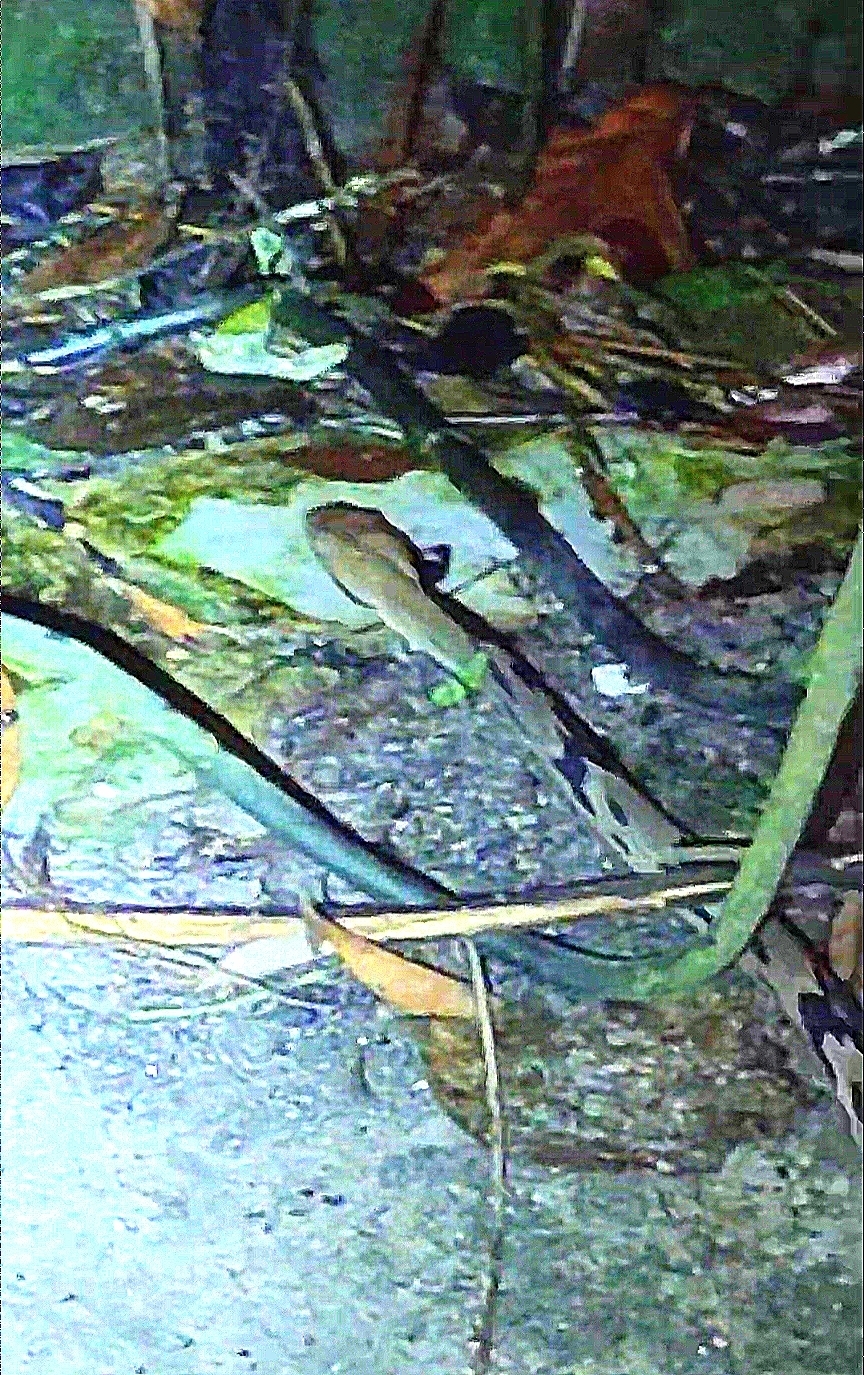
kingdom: Animalia
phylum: Chordata
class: Squamata
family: Colubridae
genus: Boiga
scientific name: Boiga cynodon
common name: Dog-toothed cat snake
